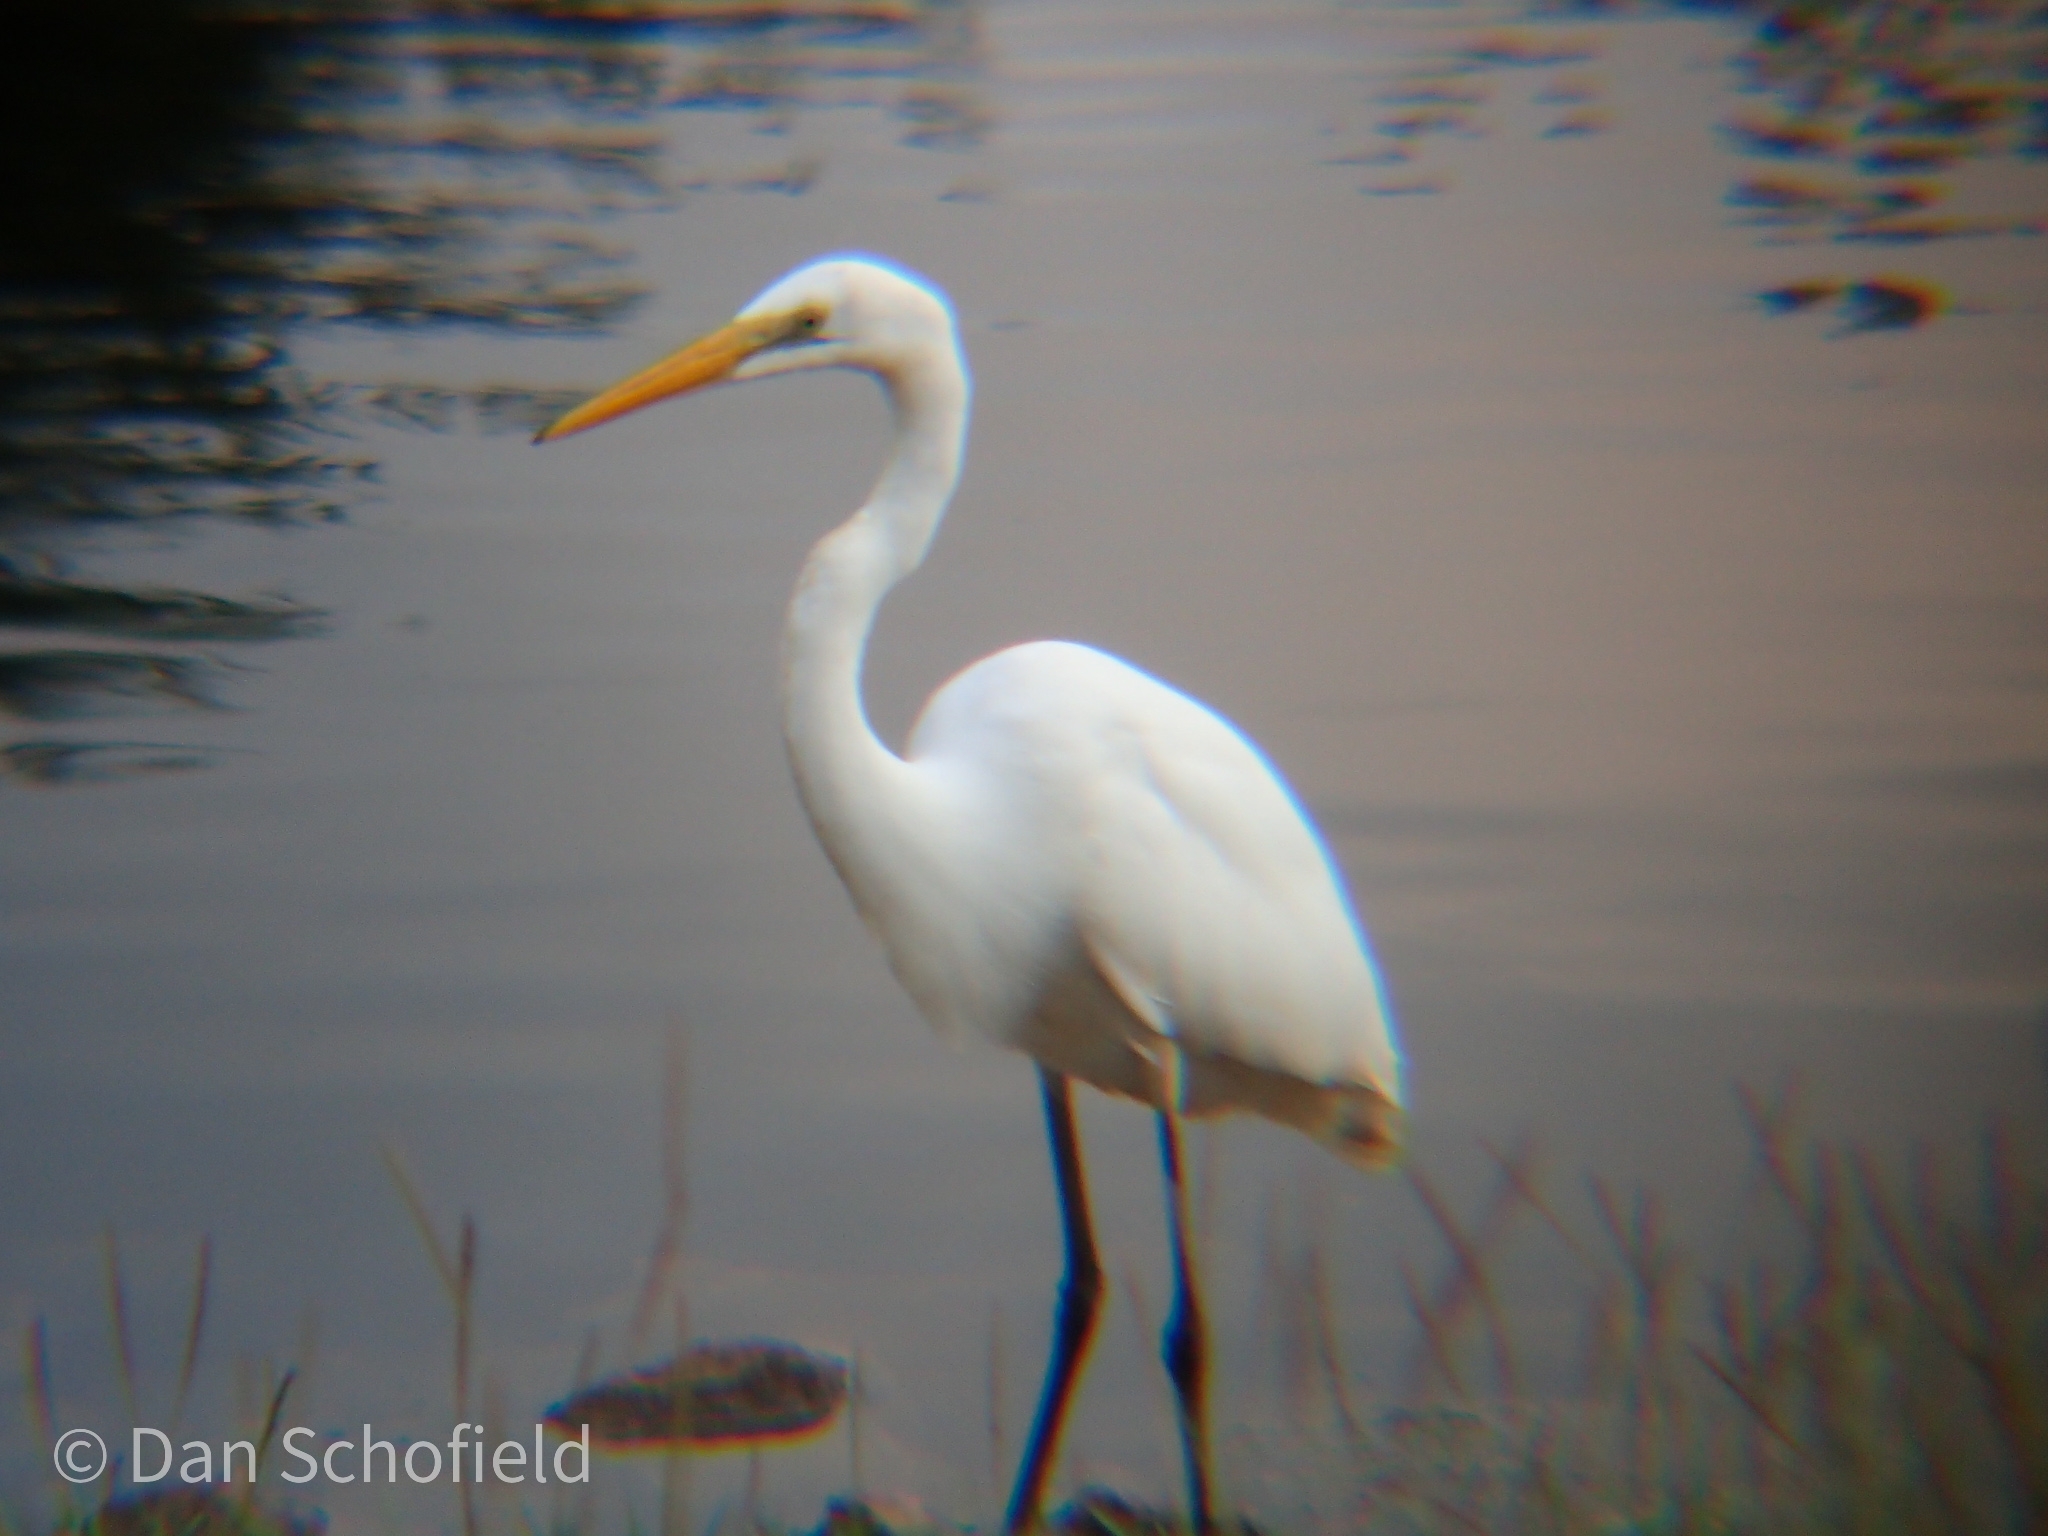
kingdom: Animalia
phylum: Chordata
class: Aves
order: Pelecaniformes
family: Ardeidae
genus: Ardea
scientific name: Ardea alba
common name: Great egret
